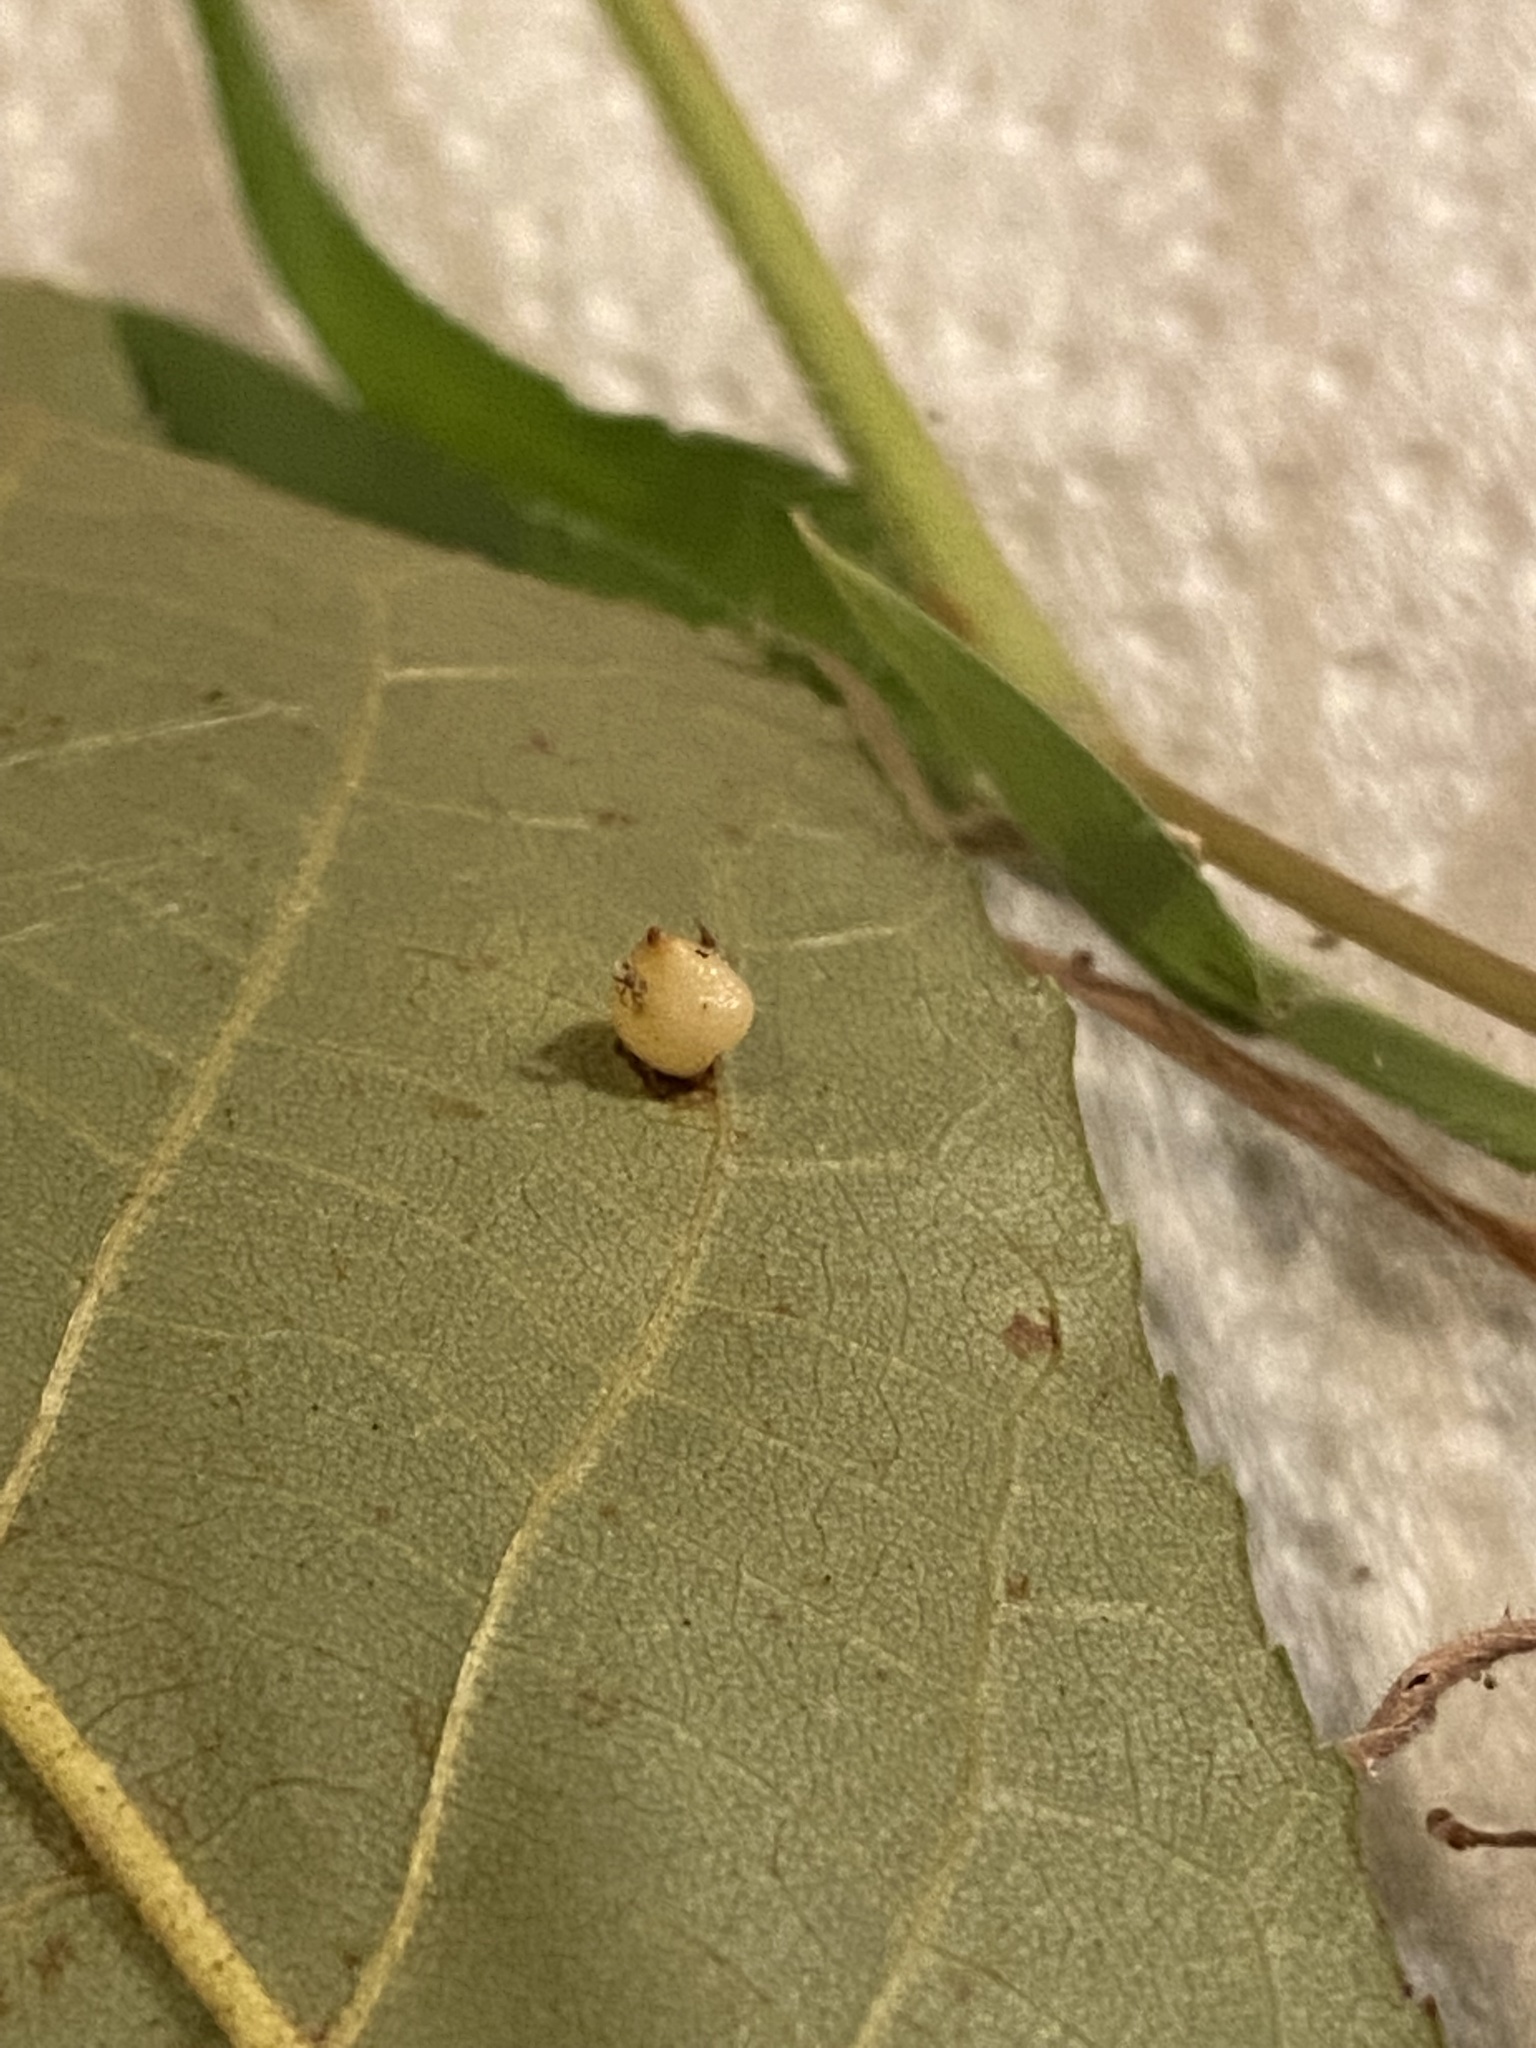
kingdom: Animalia
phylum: Arthropoda
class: Insecta
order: Diptera
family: Cecidomyiidae
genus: Caryomyia
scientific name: Caryomyia caryae
